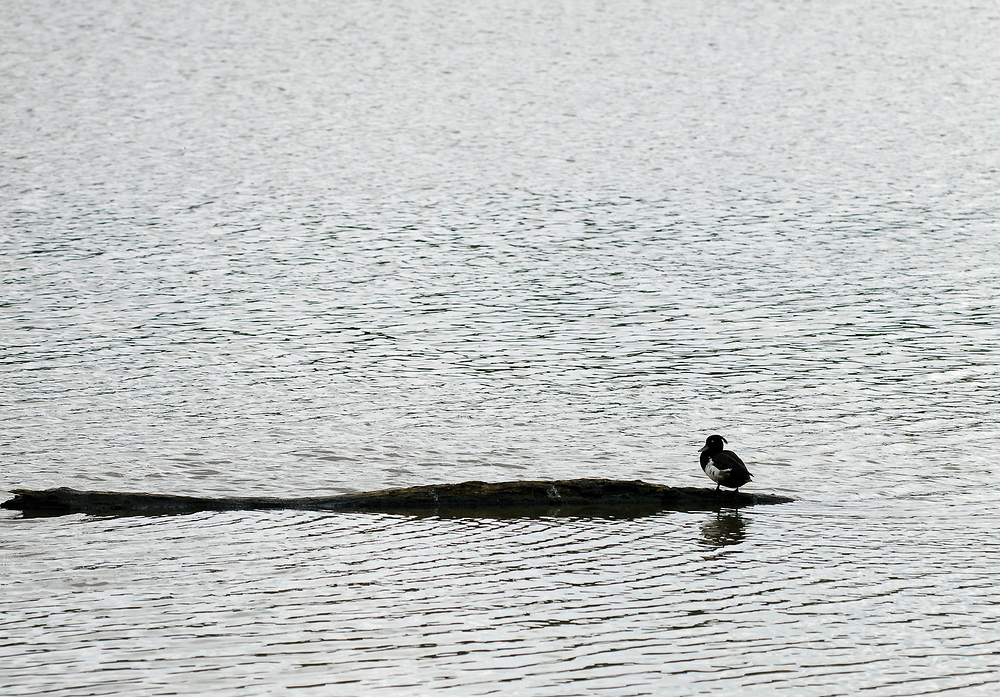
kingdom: Animalia
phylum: Chordata
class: Aves
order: Anseriformes
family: Anatidae
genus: Aythya
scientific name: Aythya fuligula
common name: Tufted duck
